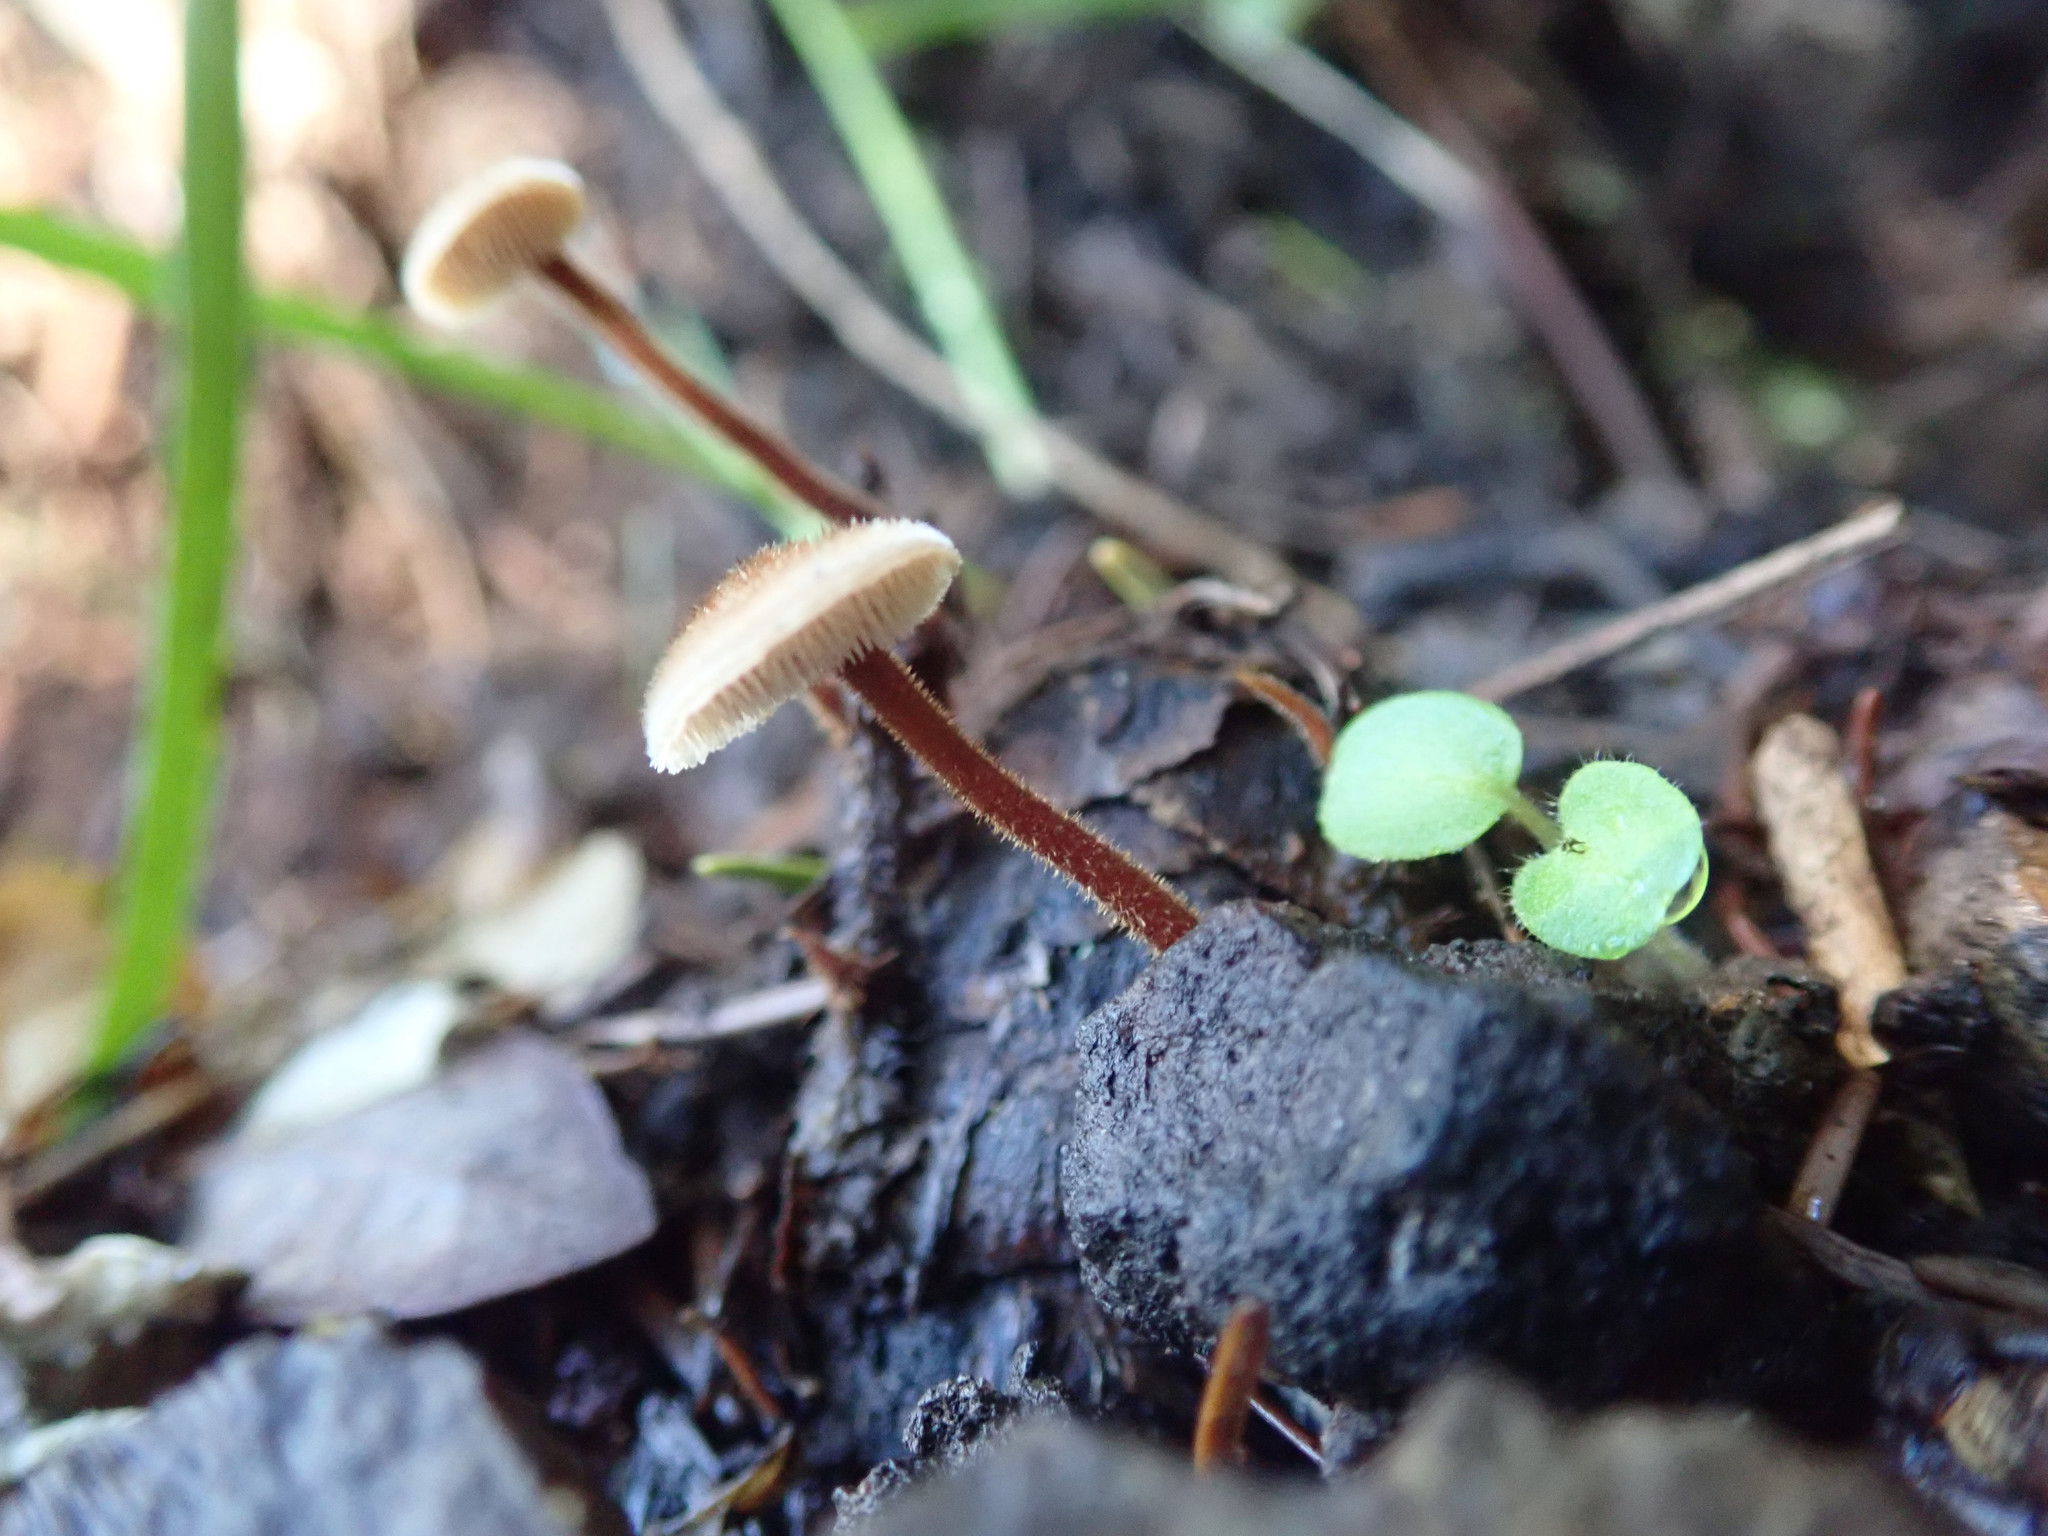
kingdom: Fungi
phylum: Basidiomycota
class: Agaricomycetes
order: Russulales
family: Auriscalpiaceae
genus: Auriscalpium
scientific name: Auriscalpium vulgare
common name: Earpick fungus
